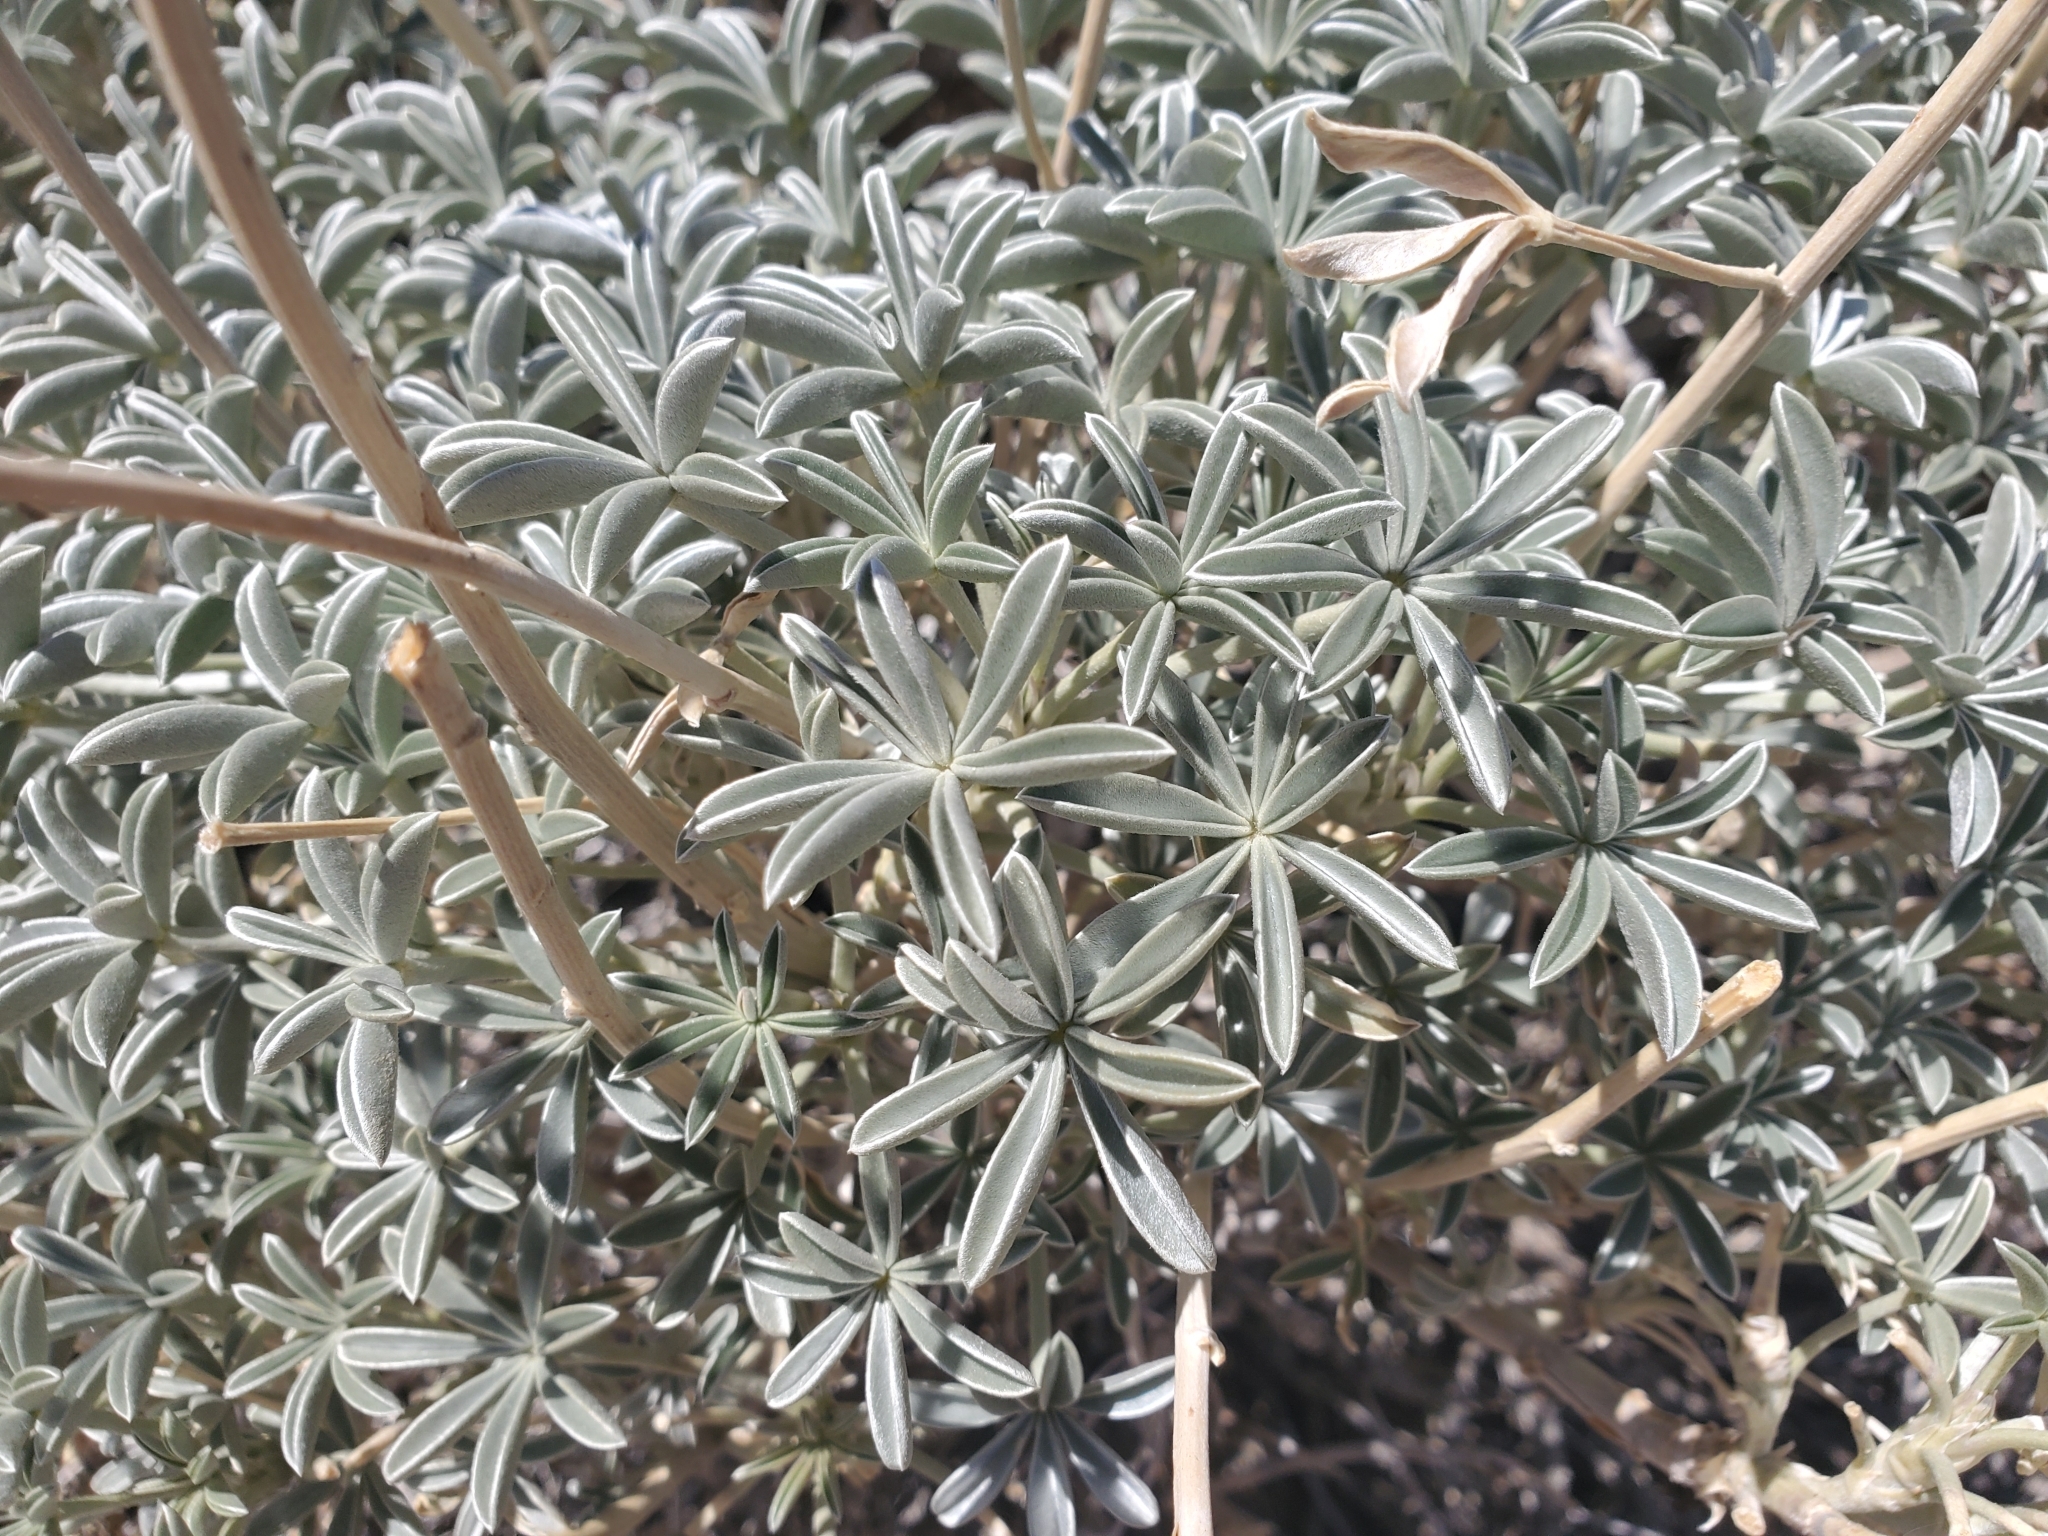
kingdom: Plantae
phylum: Tracheophyta
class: Magnoliopsida
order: Fabales
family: Fabaceae
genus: Lupinus
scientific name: Lupinus excubitus
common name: Grape soda lupine
